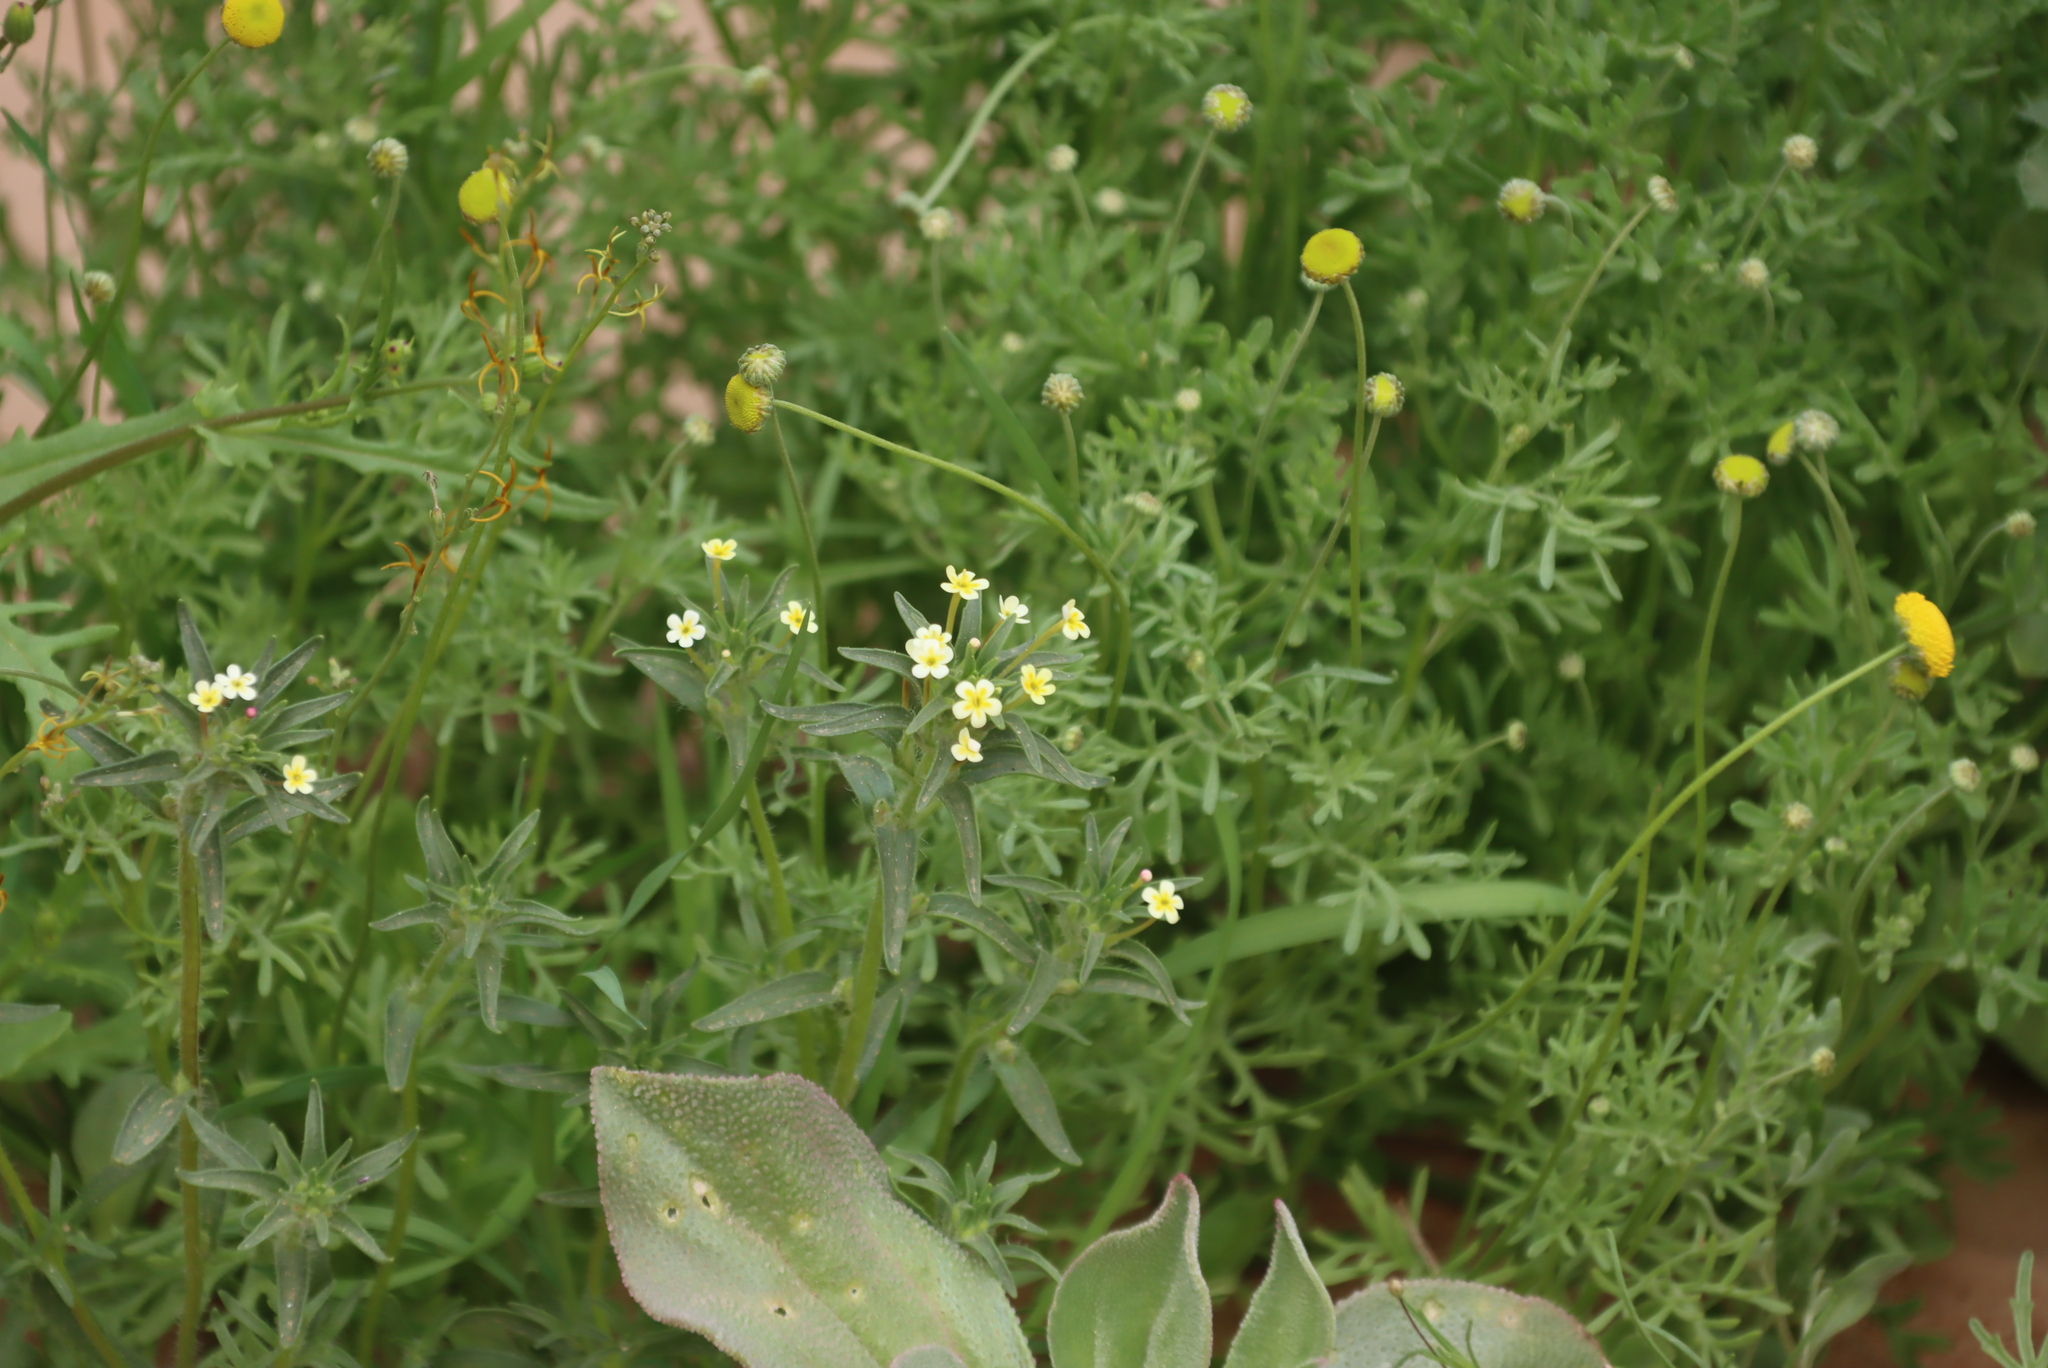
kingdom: Plantae
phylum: Tracheophyta
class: Magnoliopsida
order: Lamiales
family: Scrophulariaceae
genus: Zaluzianskya
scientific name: Zaluzianskya benthamiana
